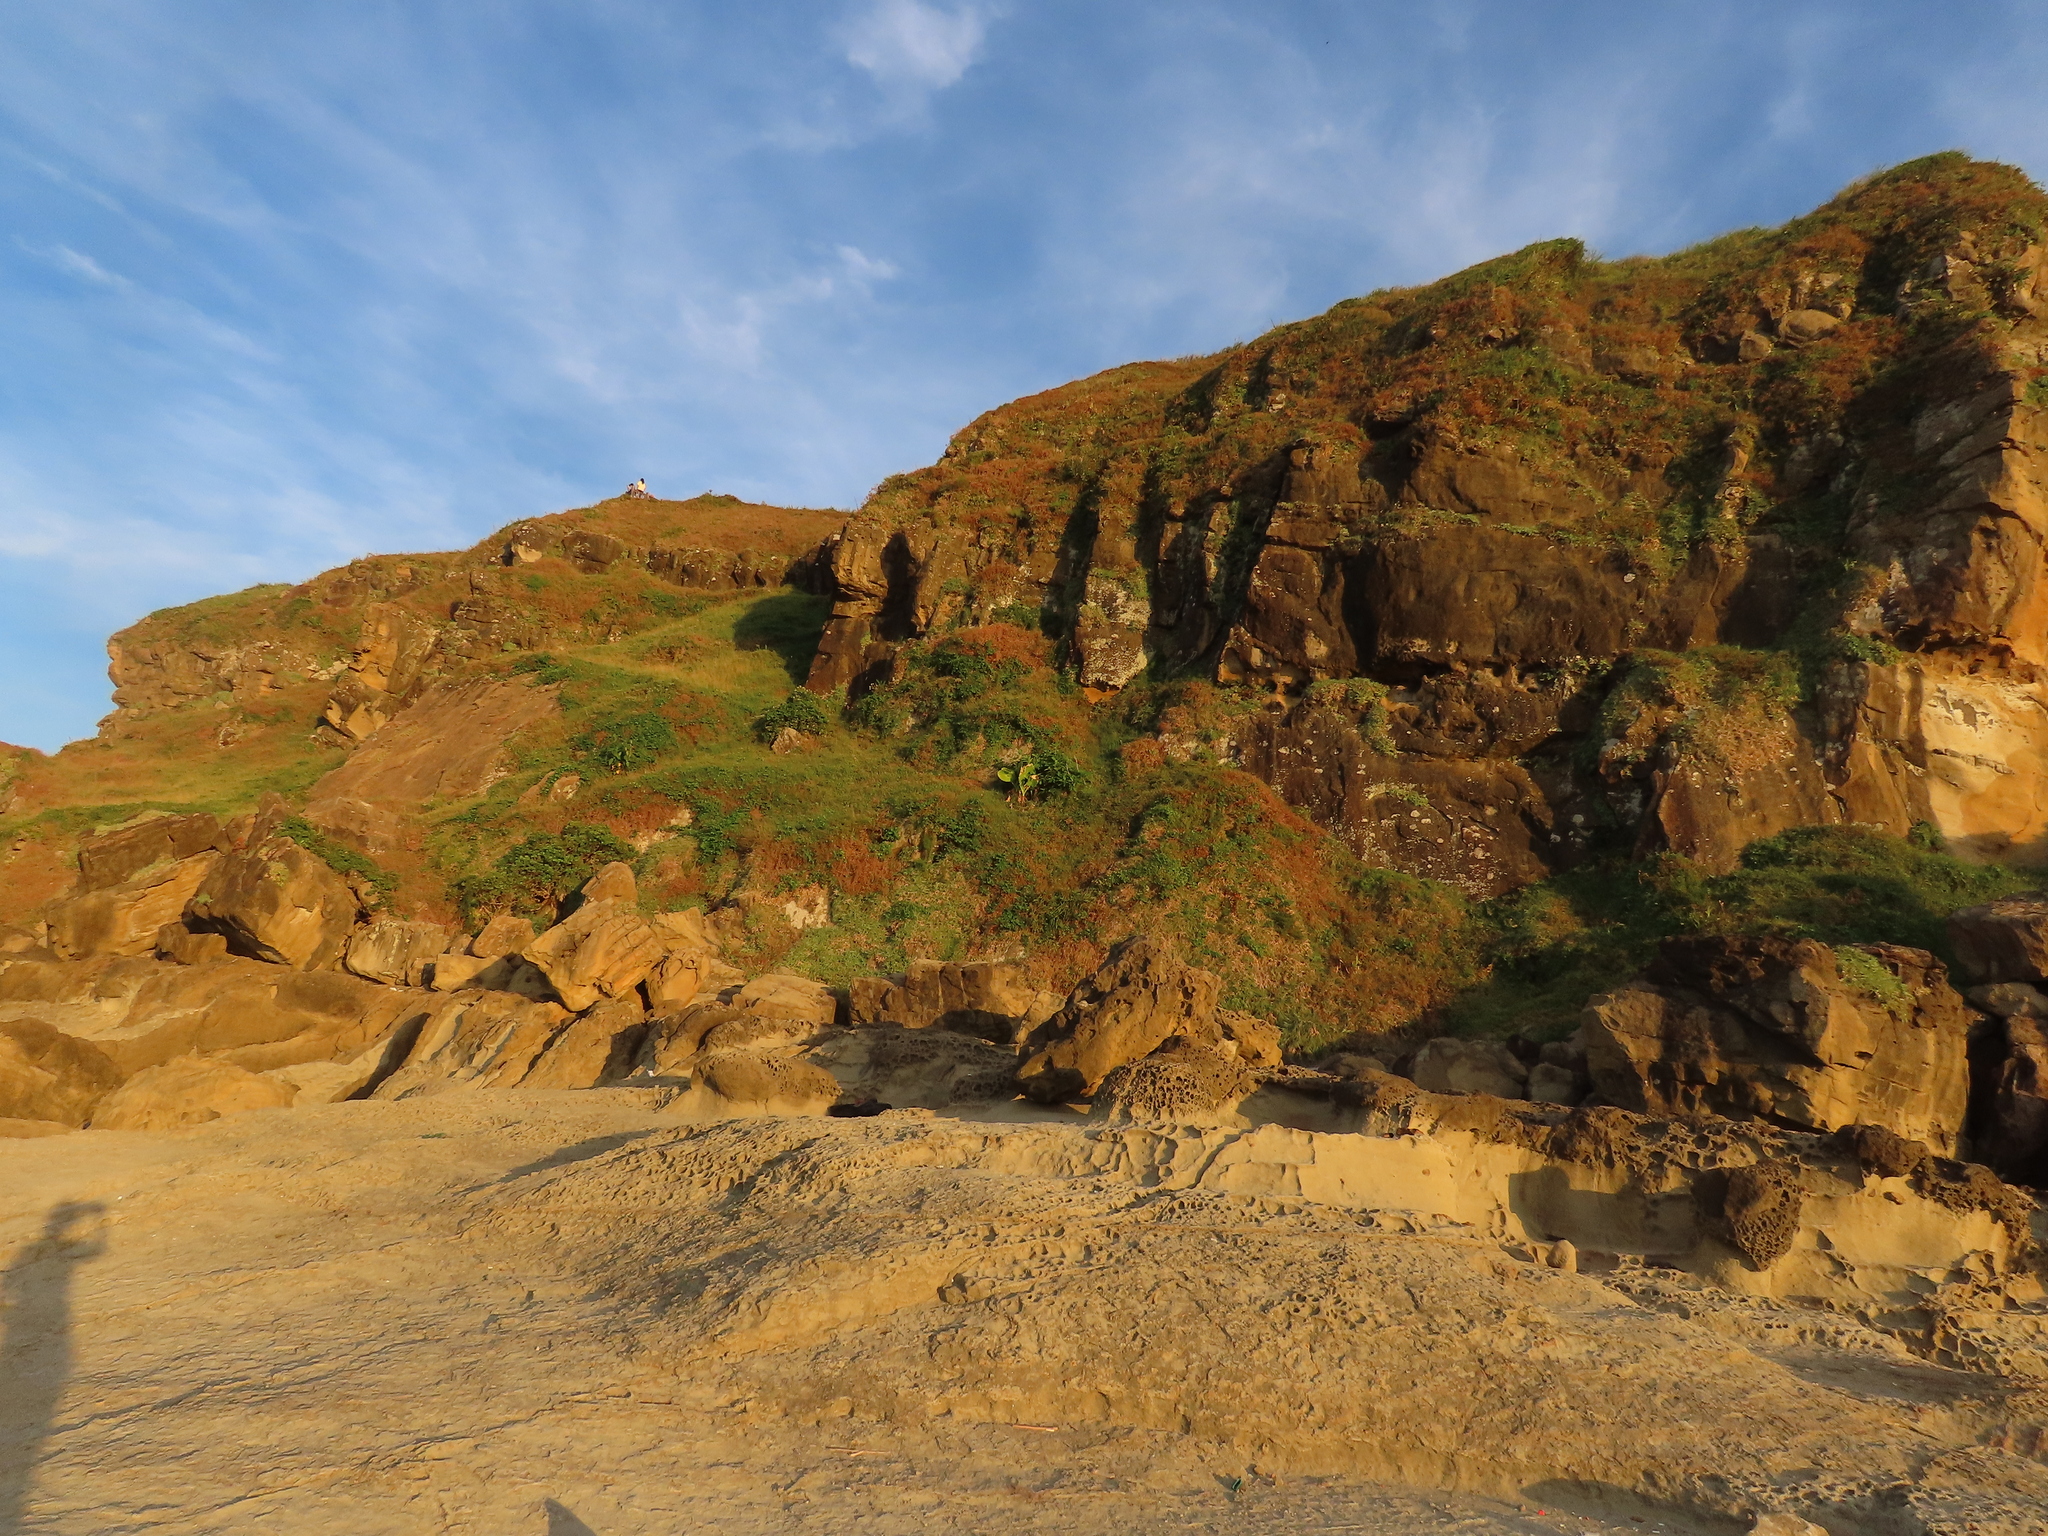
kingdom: Plantae
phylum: Tracheophyta
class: Liliopsida
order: Alismatales
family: Araceae
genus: Alocasia
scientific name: Alocasia odora
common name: Asian taro
